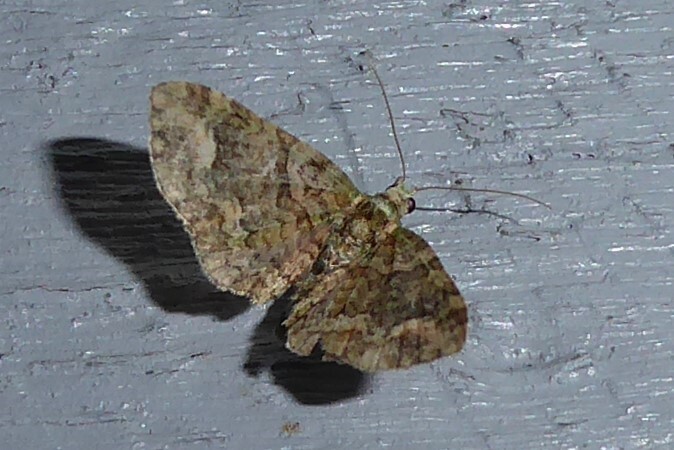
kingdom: Animalia
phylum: Arthropoda
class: Insecta
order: Lepidoptera
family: Geometridae
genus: Idaea
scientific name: Idaea mutanda
